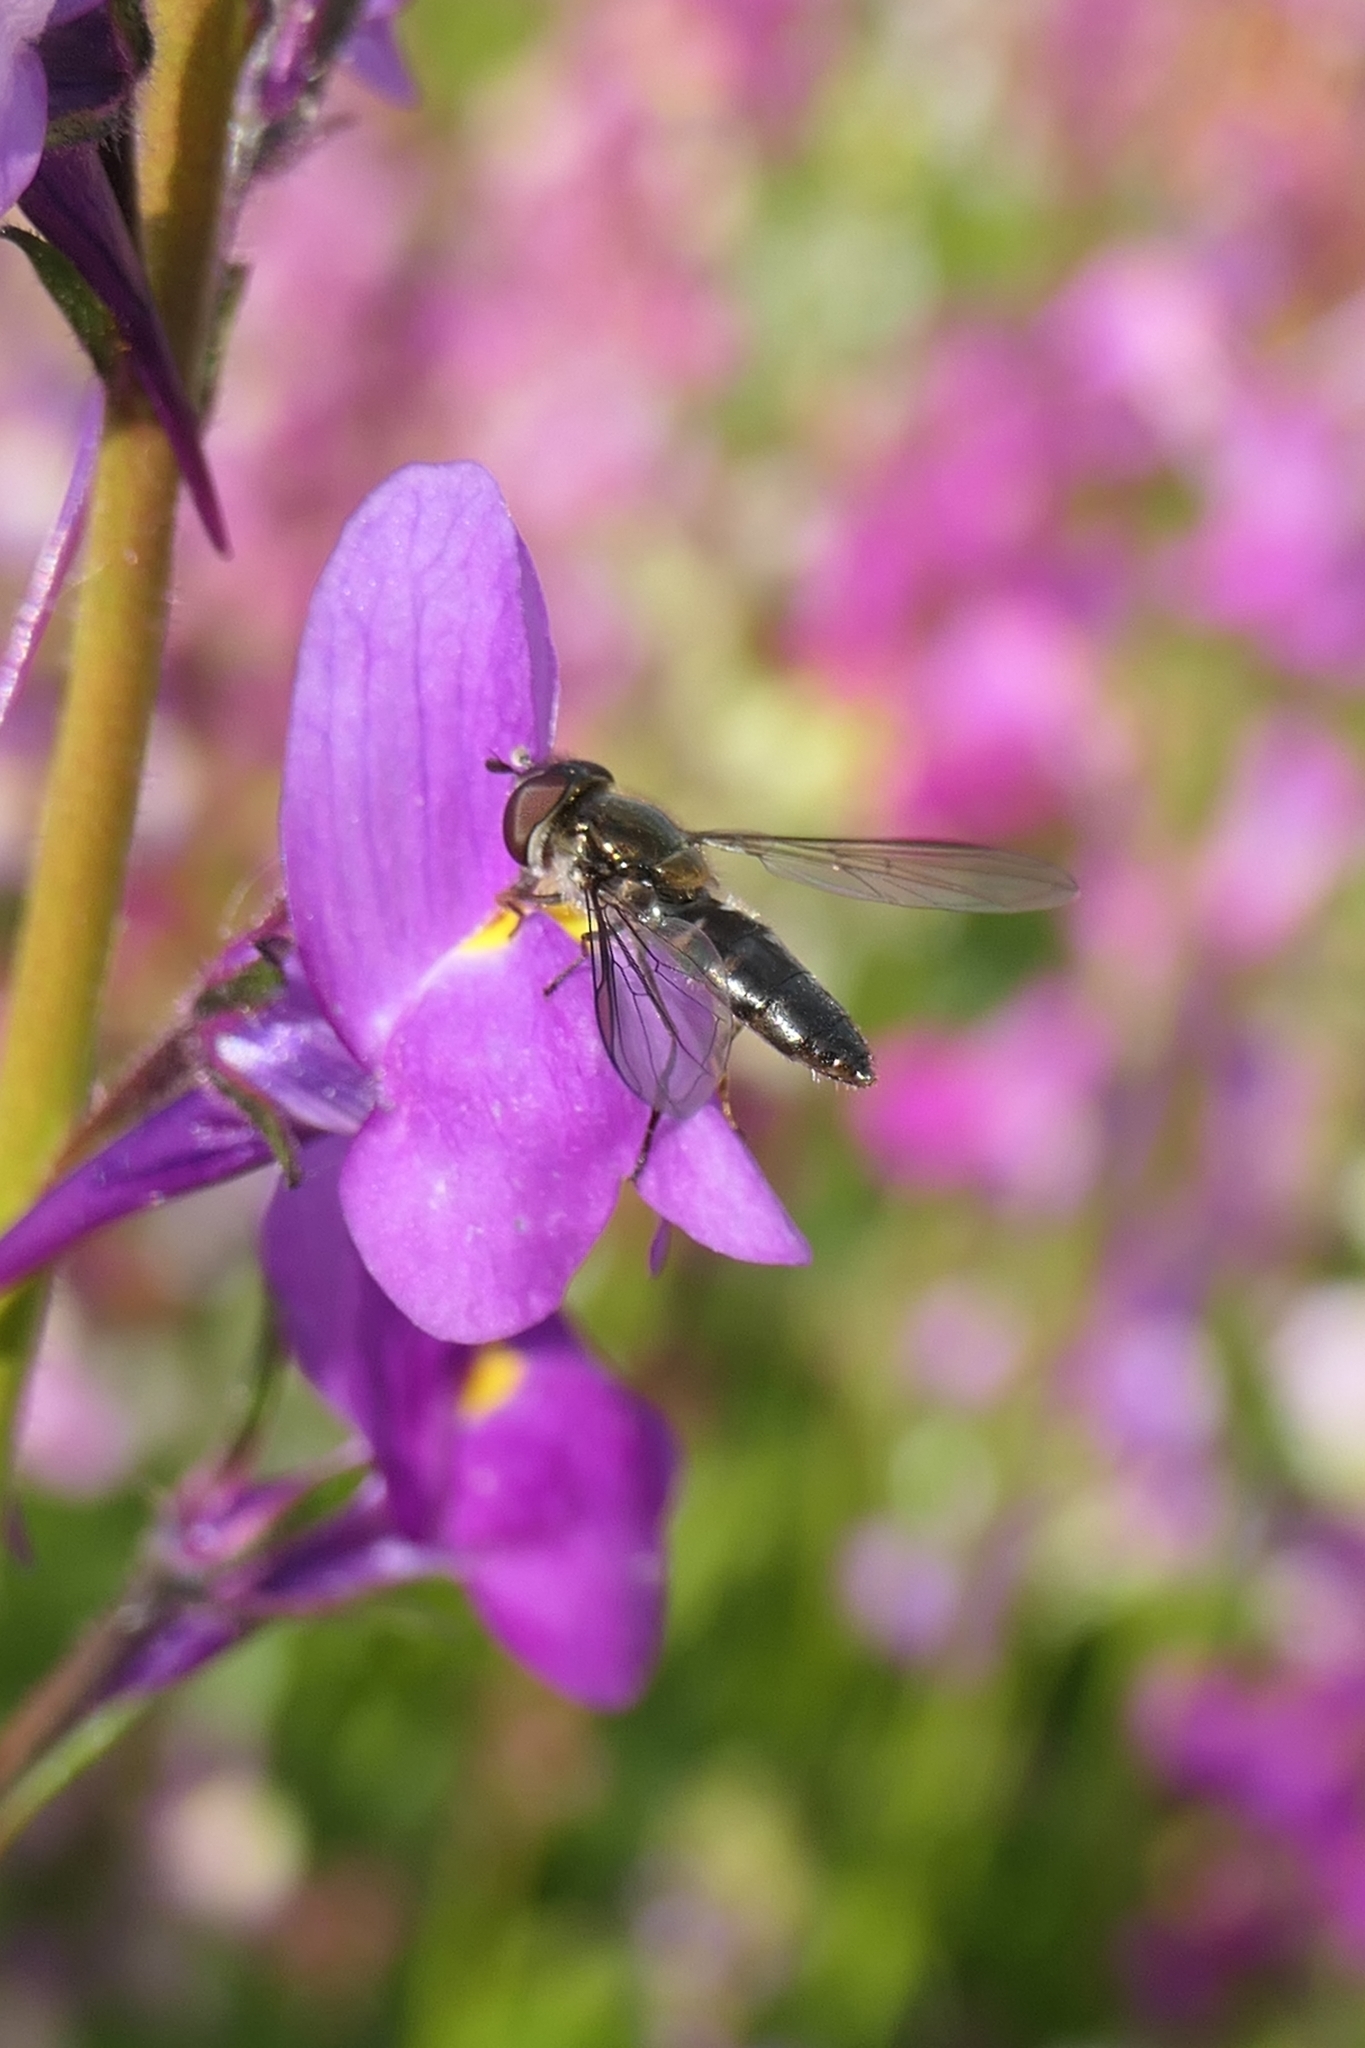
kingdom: Animalia
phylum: Arthropoda
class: Insecta
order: Diptera
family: Syrphidae
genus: Melangyna
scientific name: Melangyna novaezelandiae
